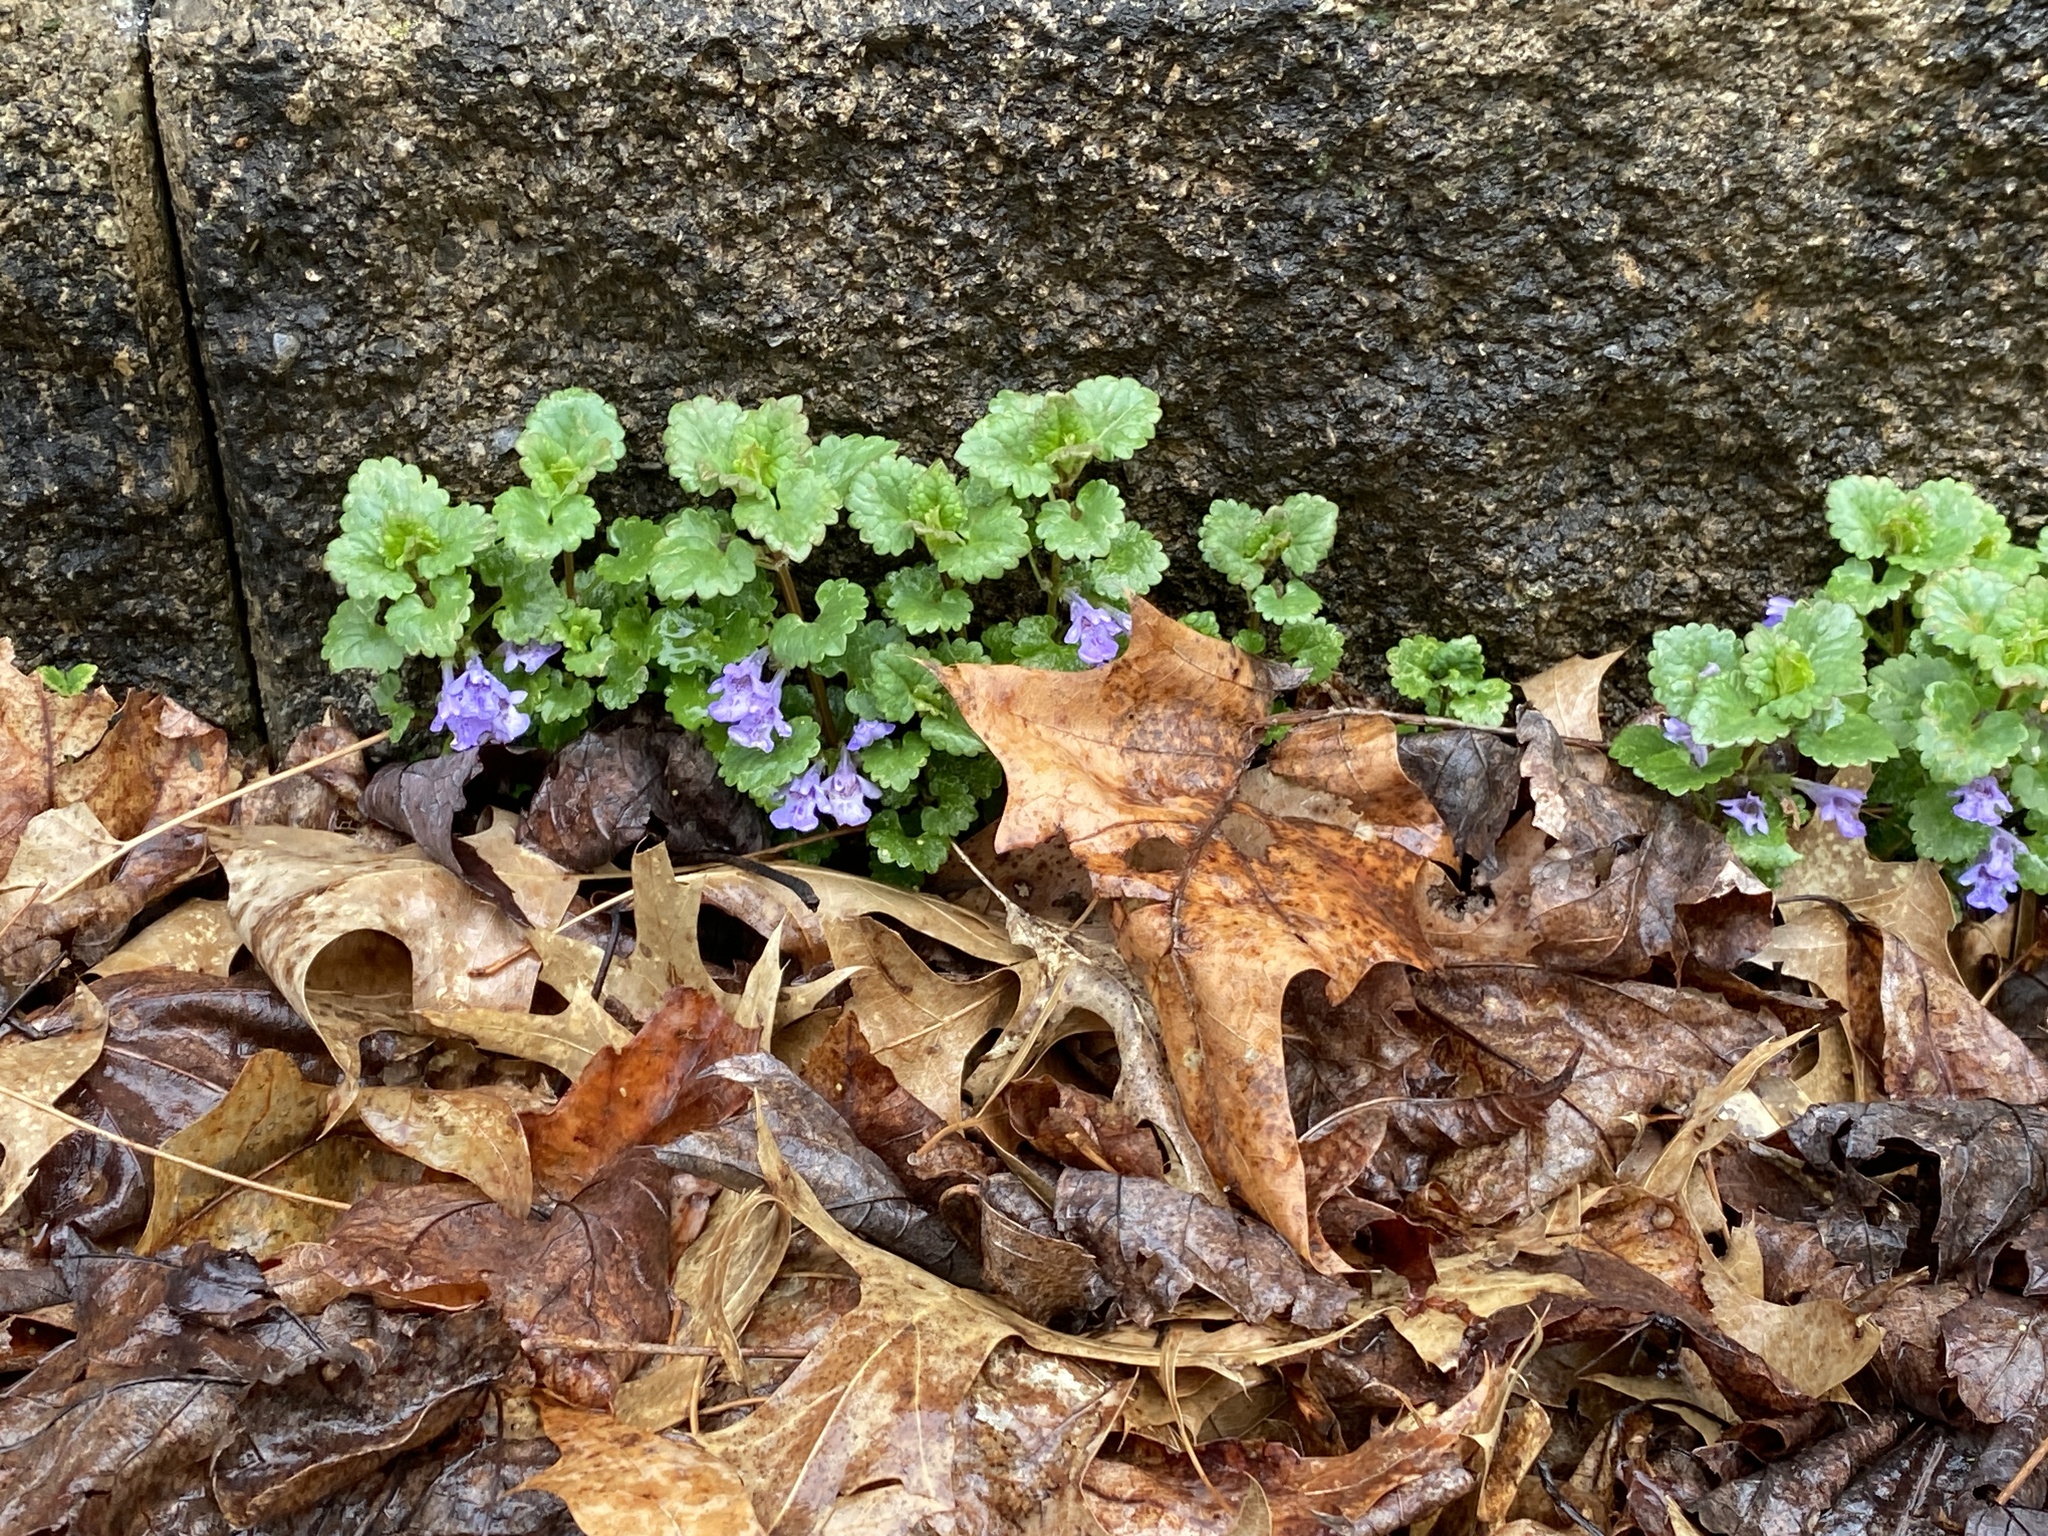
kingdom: Plantae
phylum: Tracheophyta
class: Magnoliopsida
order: Lamiales
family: Lamiaceae
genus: Glechoma
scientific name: Glechoma hederacea
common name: Ground ivy
